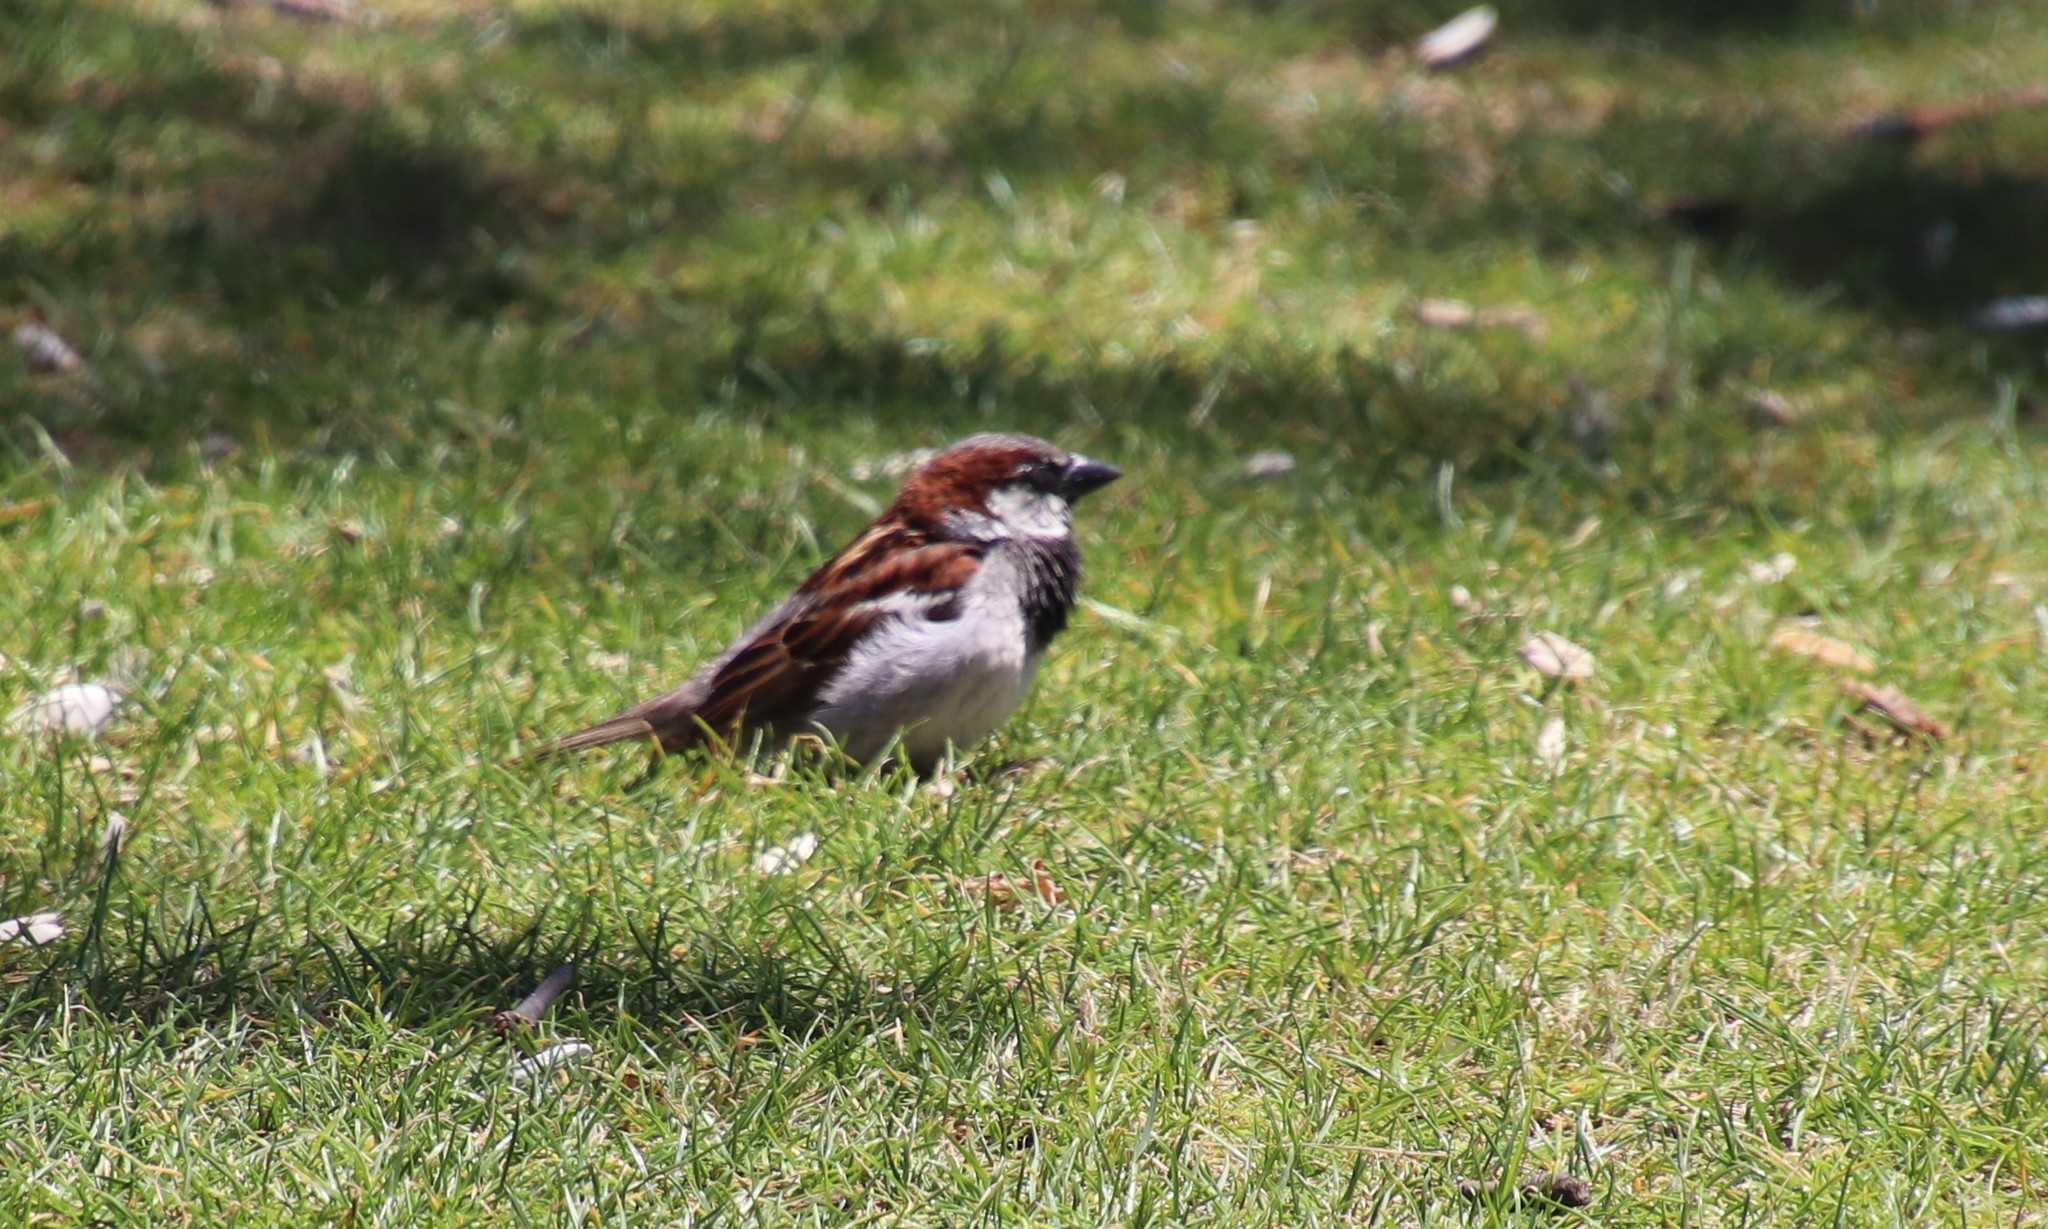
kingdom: Animalia
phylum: Chordata
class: Aves
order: Passeriformes
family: Passeridae
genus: Passer
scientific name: Passer domesticus
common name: House sparrow
